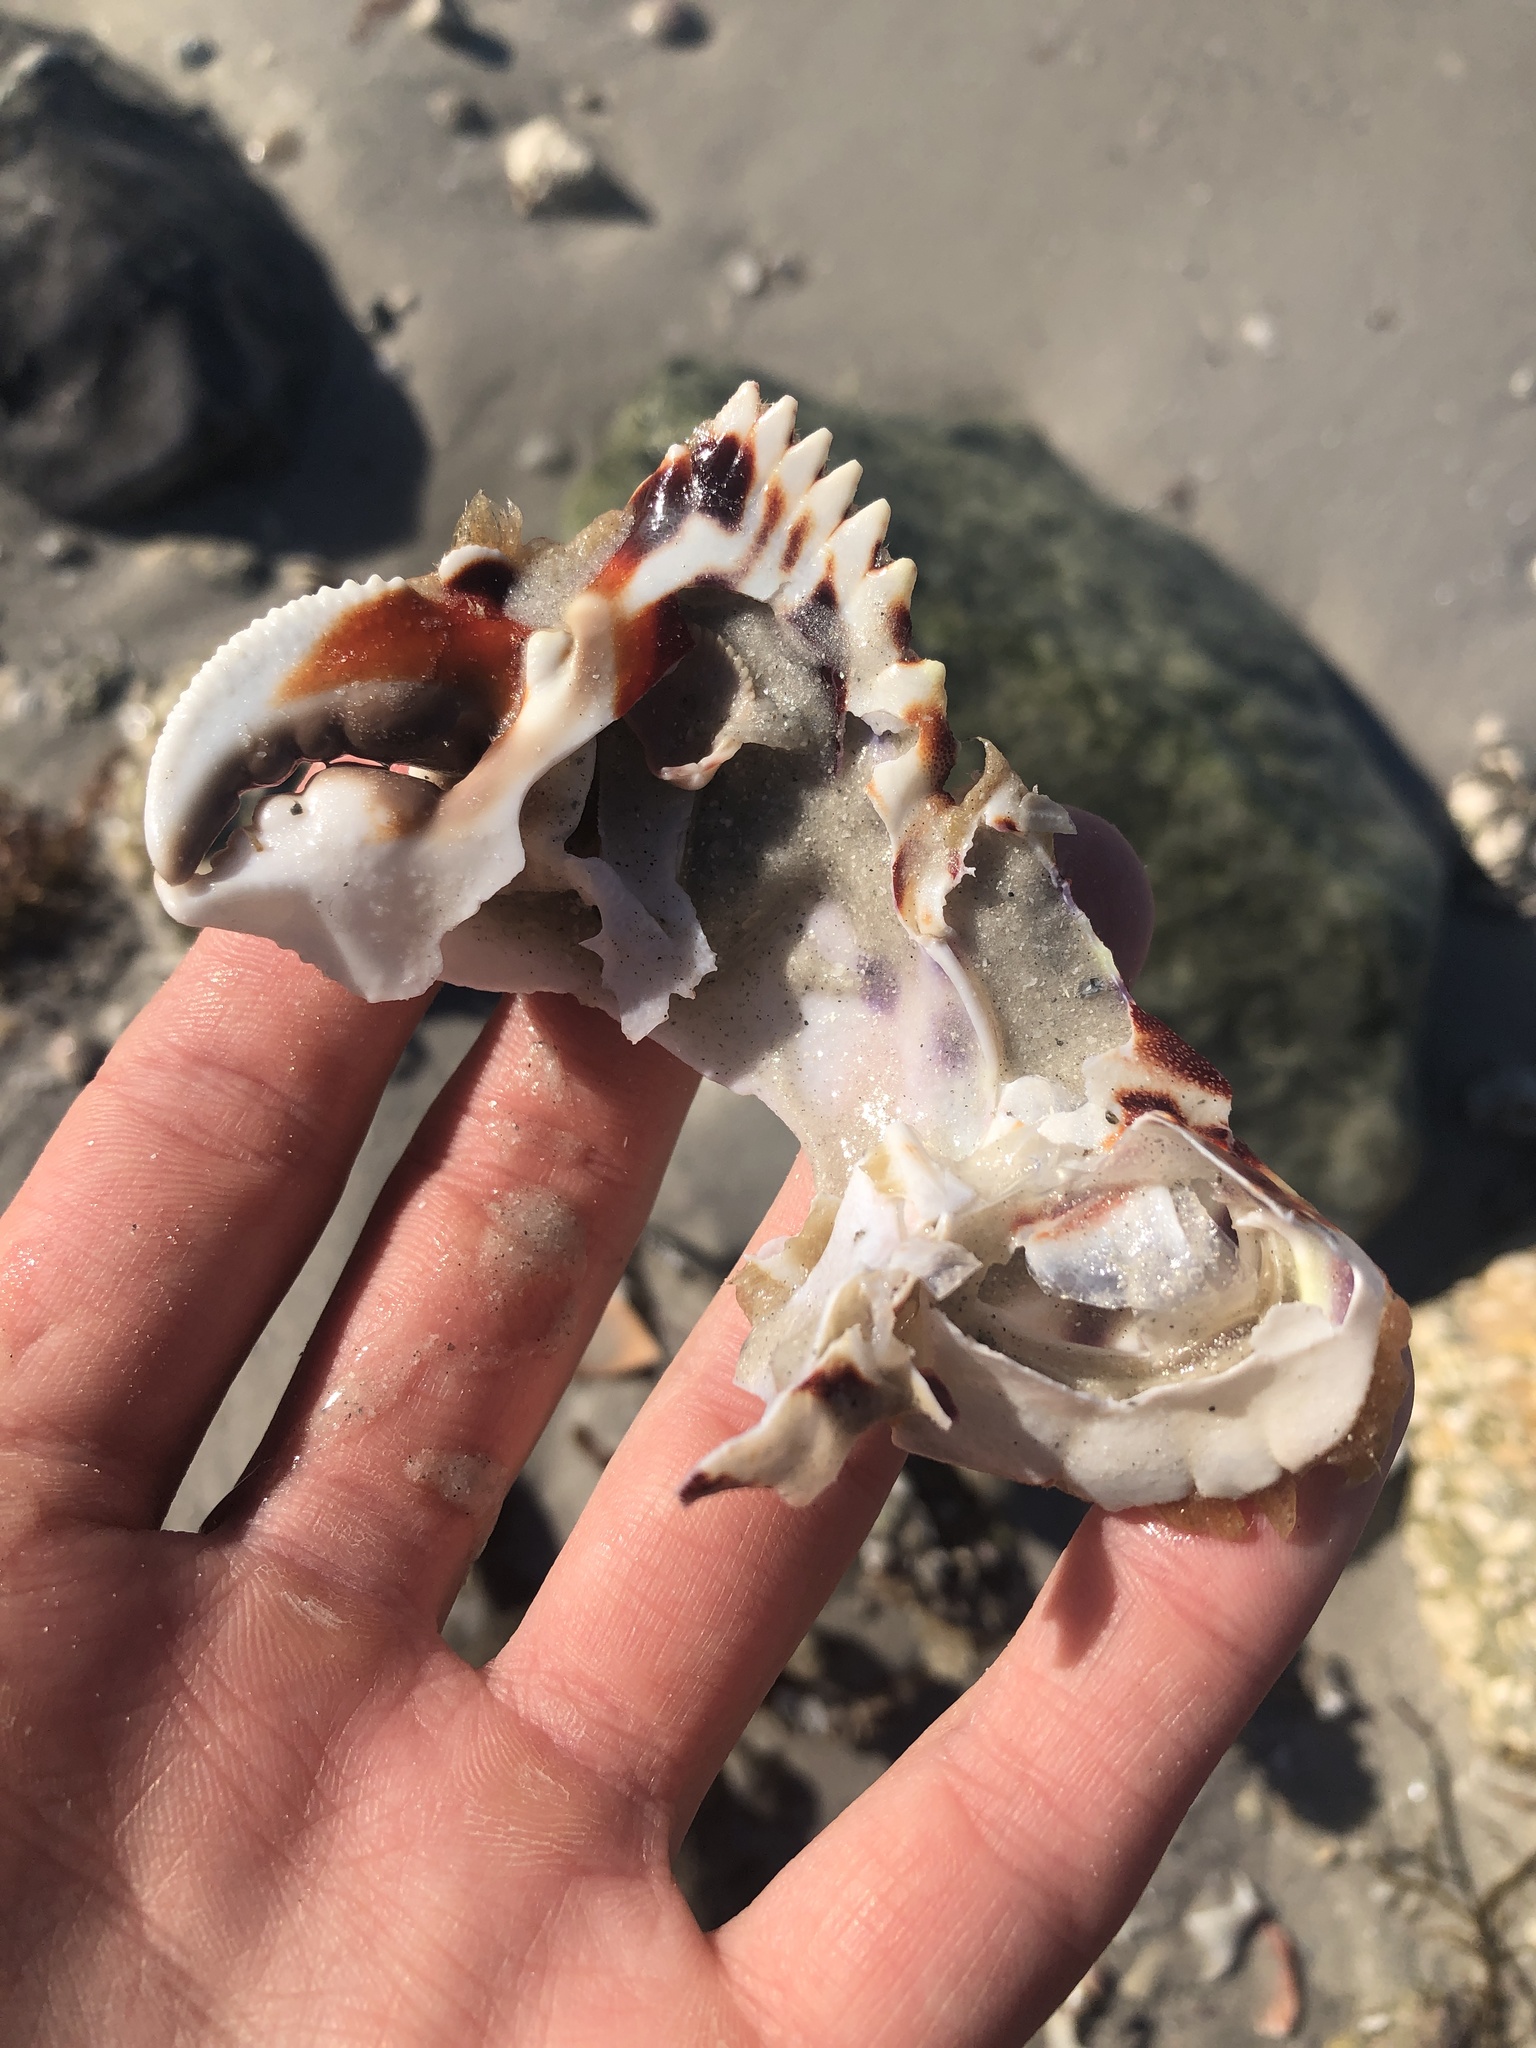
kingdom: Animalia
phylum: Arthropoda
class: Malacostraca
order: Decapoda
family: Calappidae
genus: Calappa
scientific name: Calappa flammea
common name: Flamed box crab
